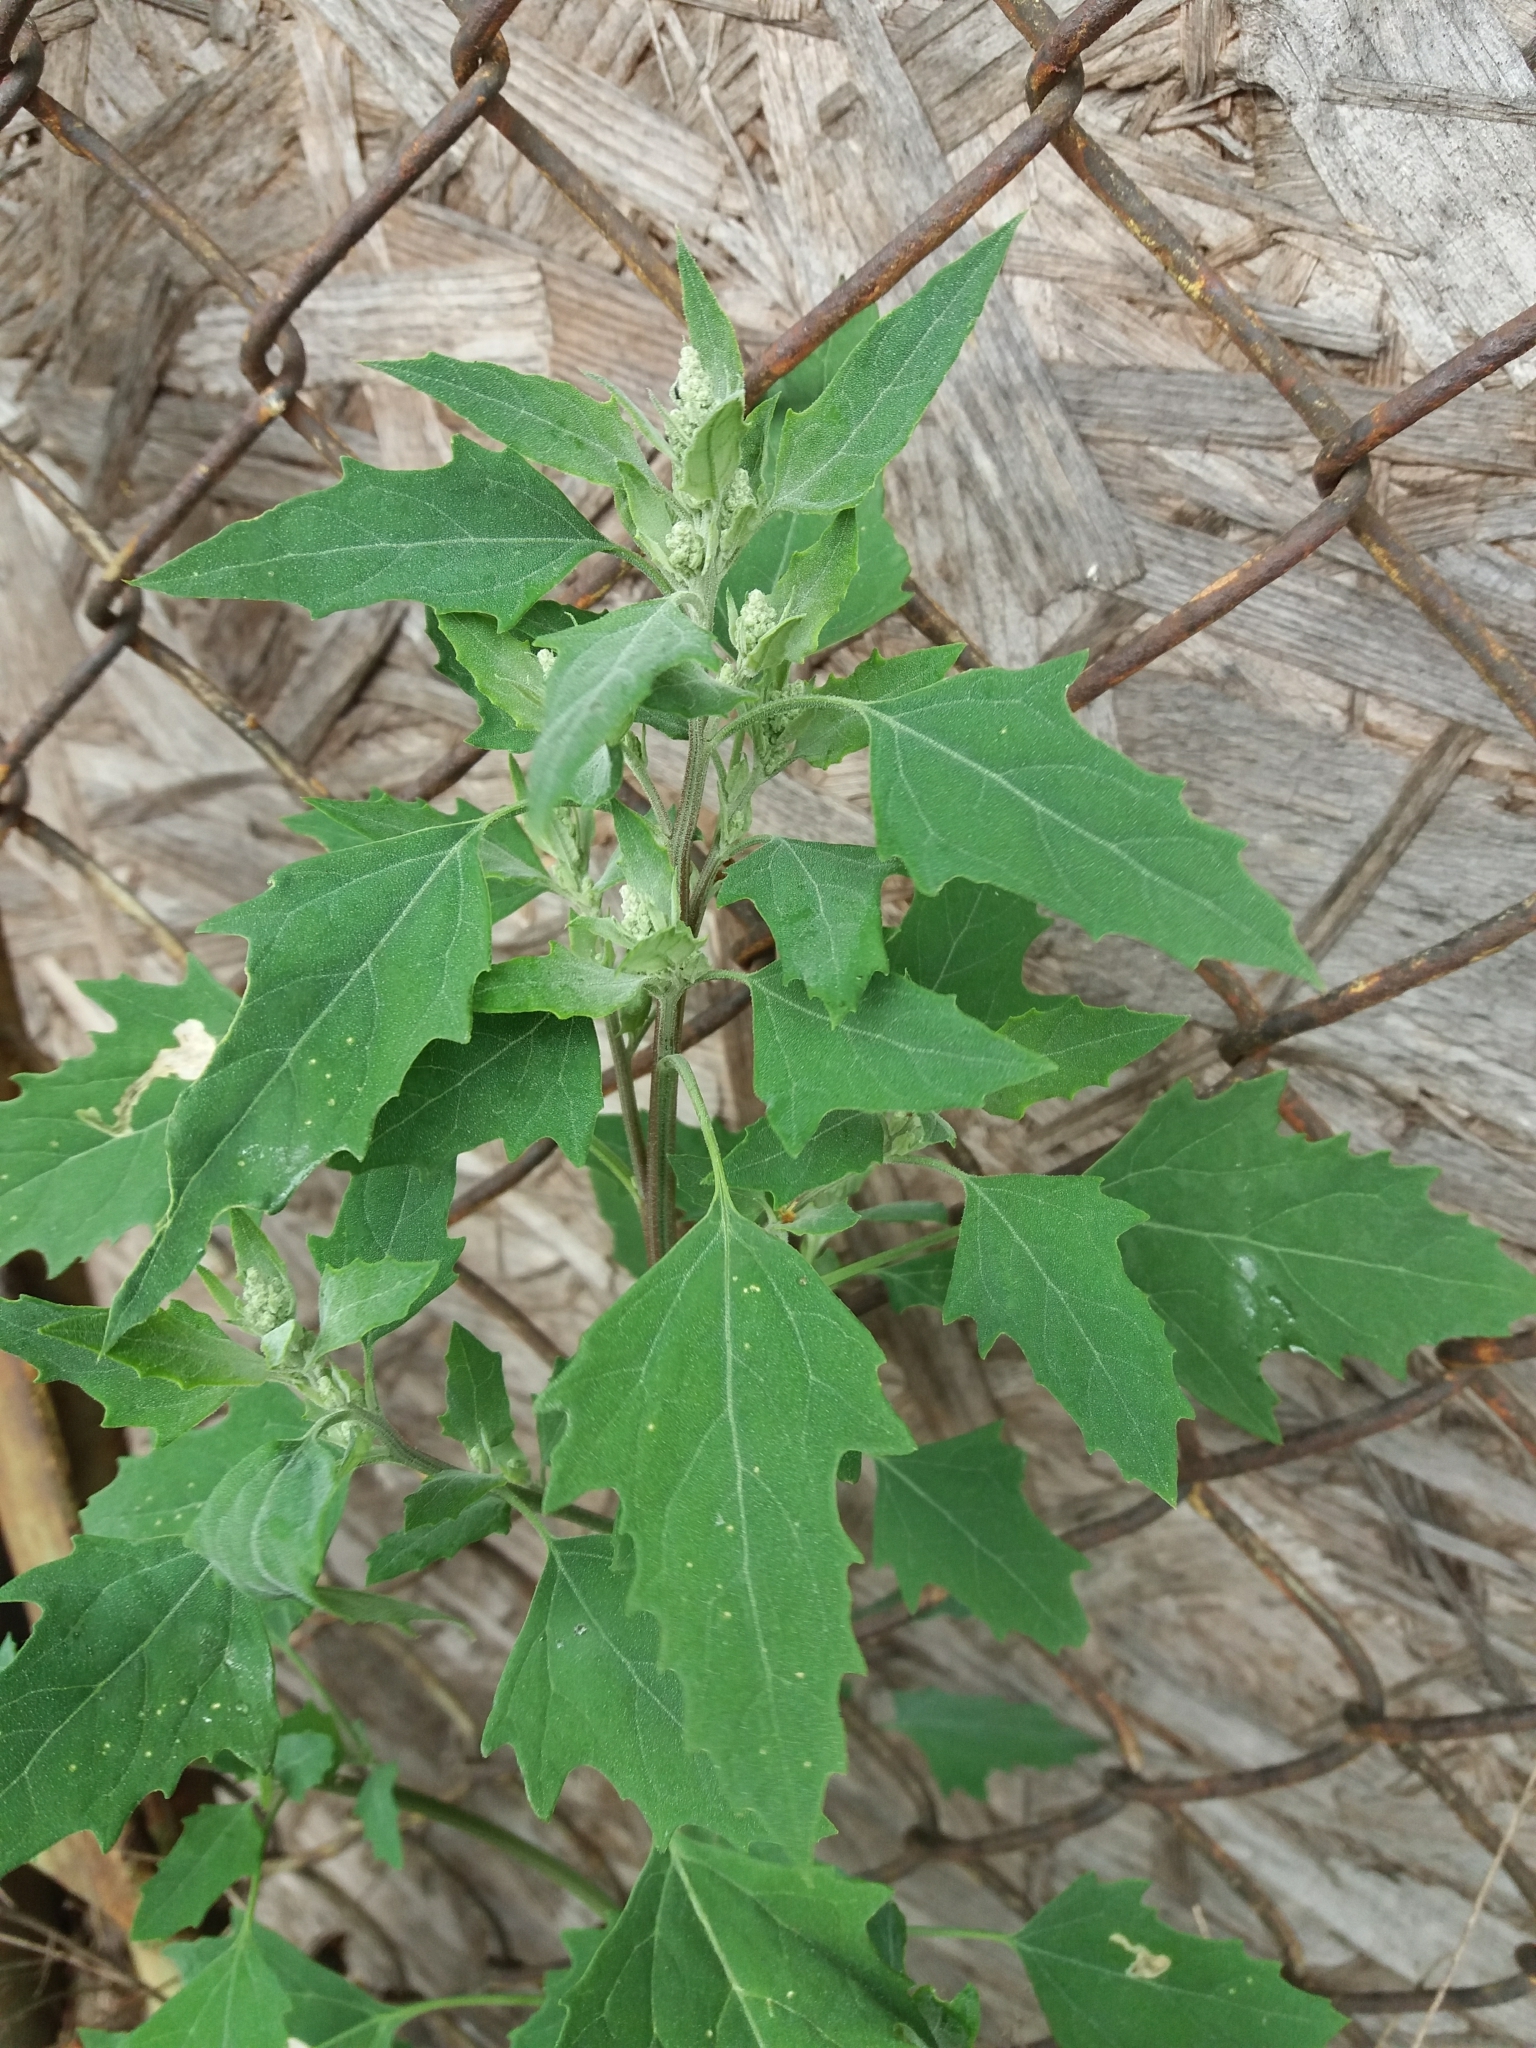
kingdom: Plantae
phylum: Tracheophyta
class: Magnoliopsida
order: Caryophyllales
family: Amaranthaceae
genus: Chenopodium
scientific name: Chenopodium album
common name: Fat-hen
